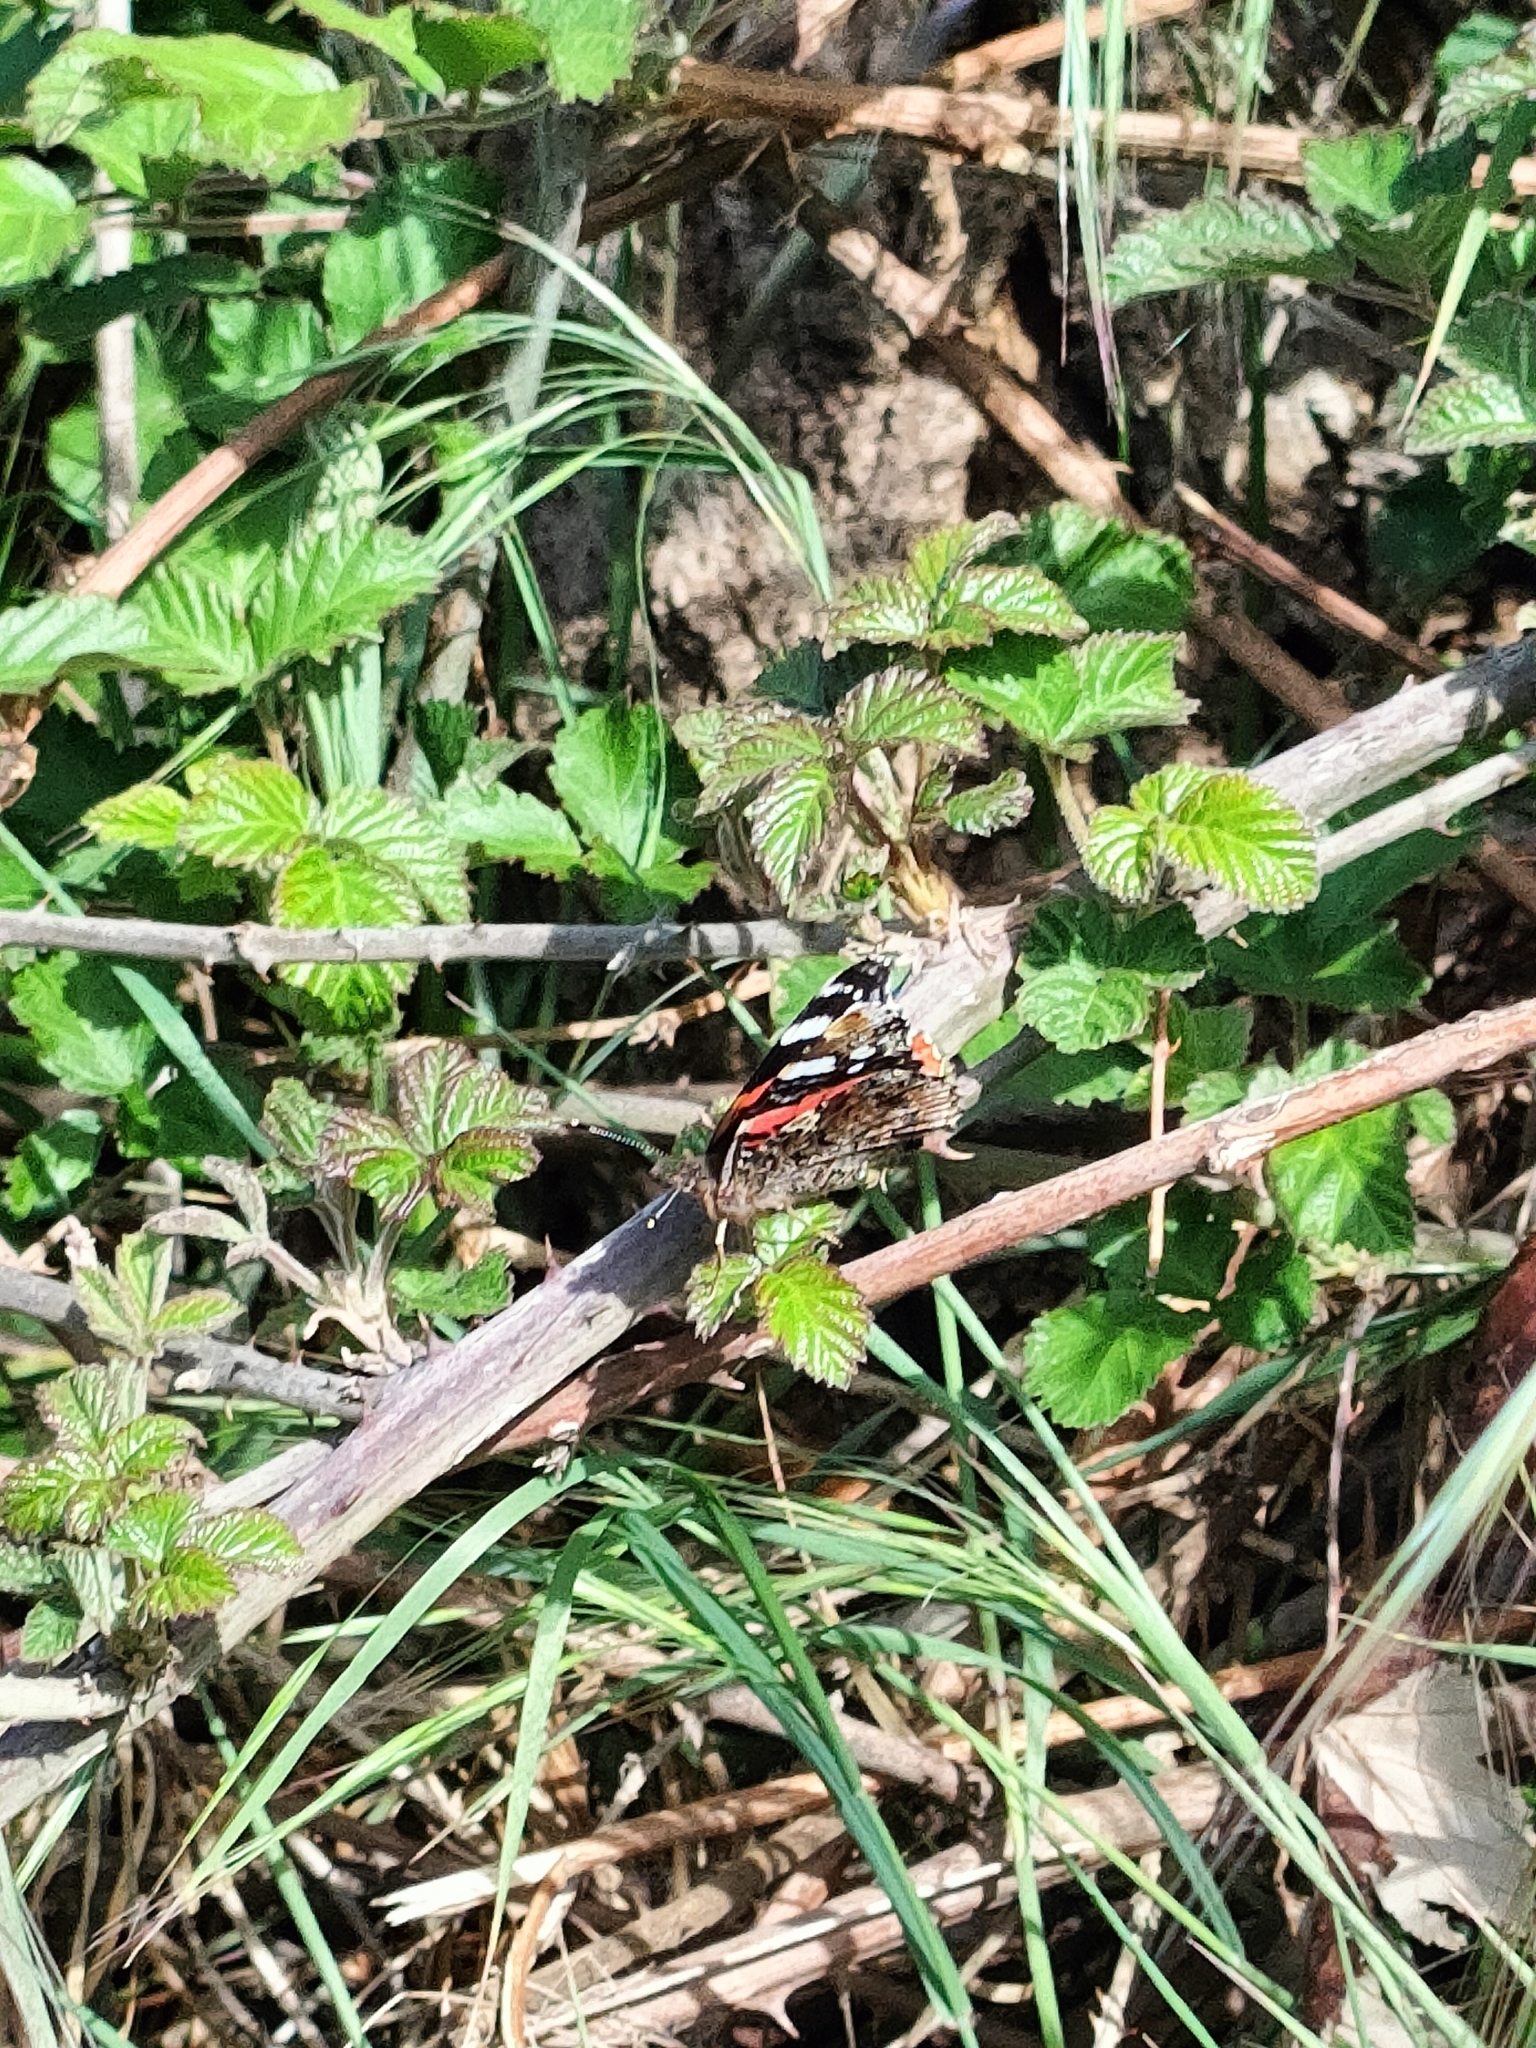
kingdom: Animalia
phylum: Arthropoda
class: Insecta
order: Lepidoptera
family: Nymphalidae
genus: Vanessa
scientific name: Vanessa atalanta
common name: Red admiral
